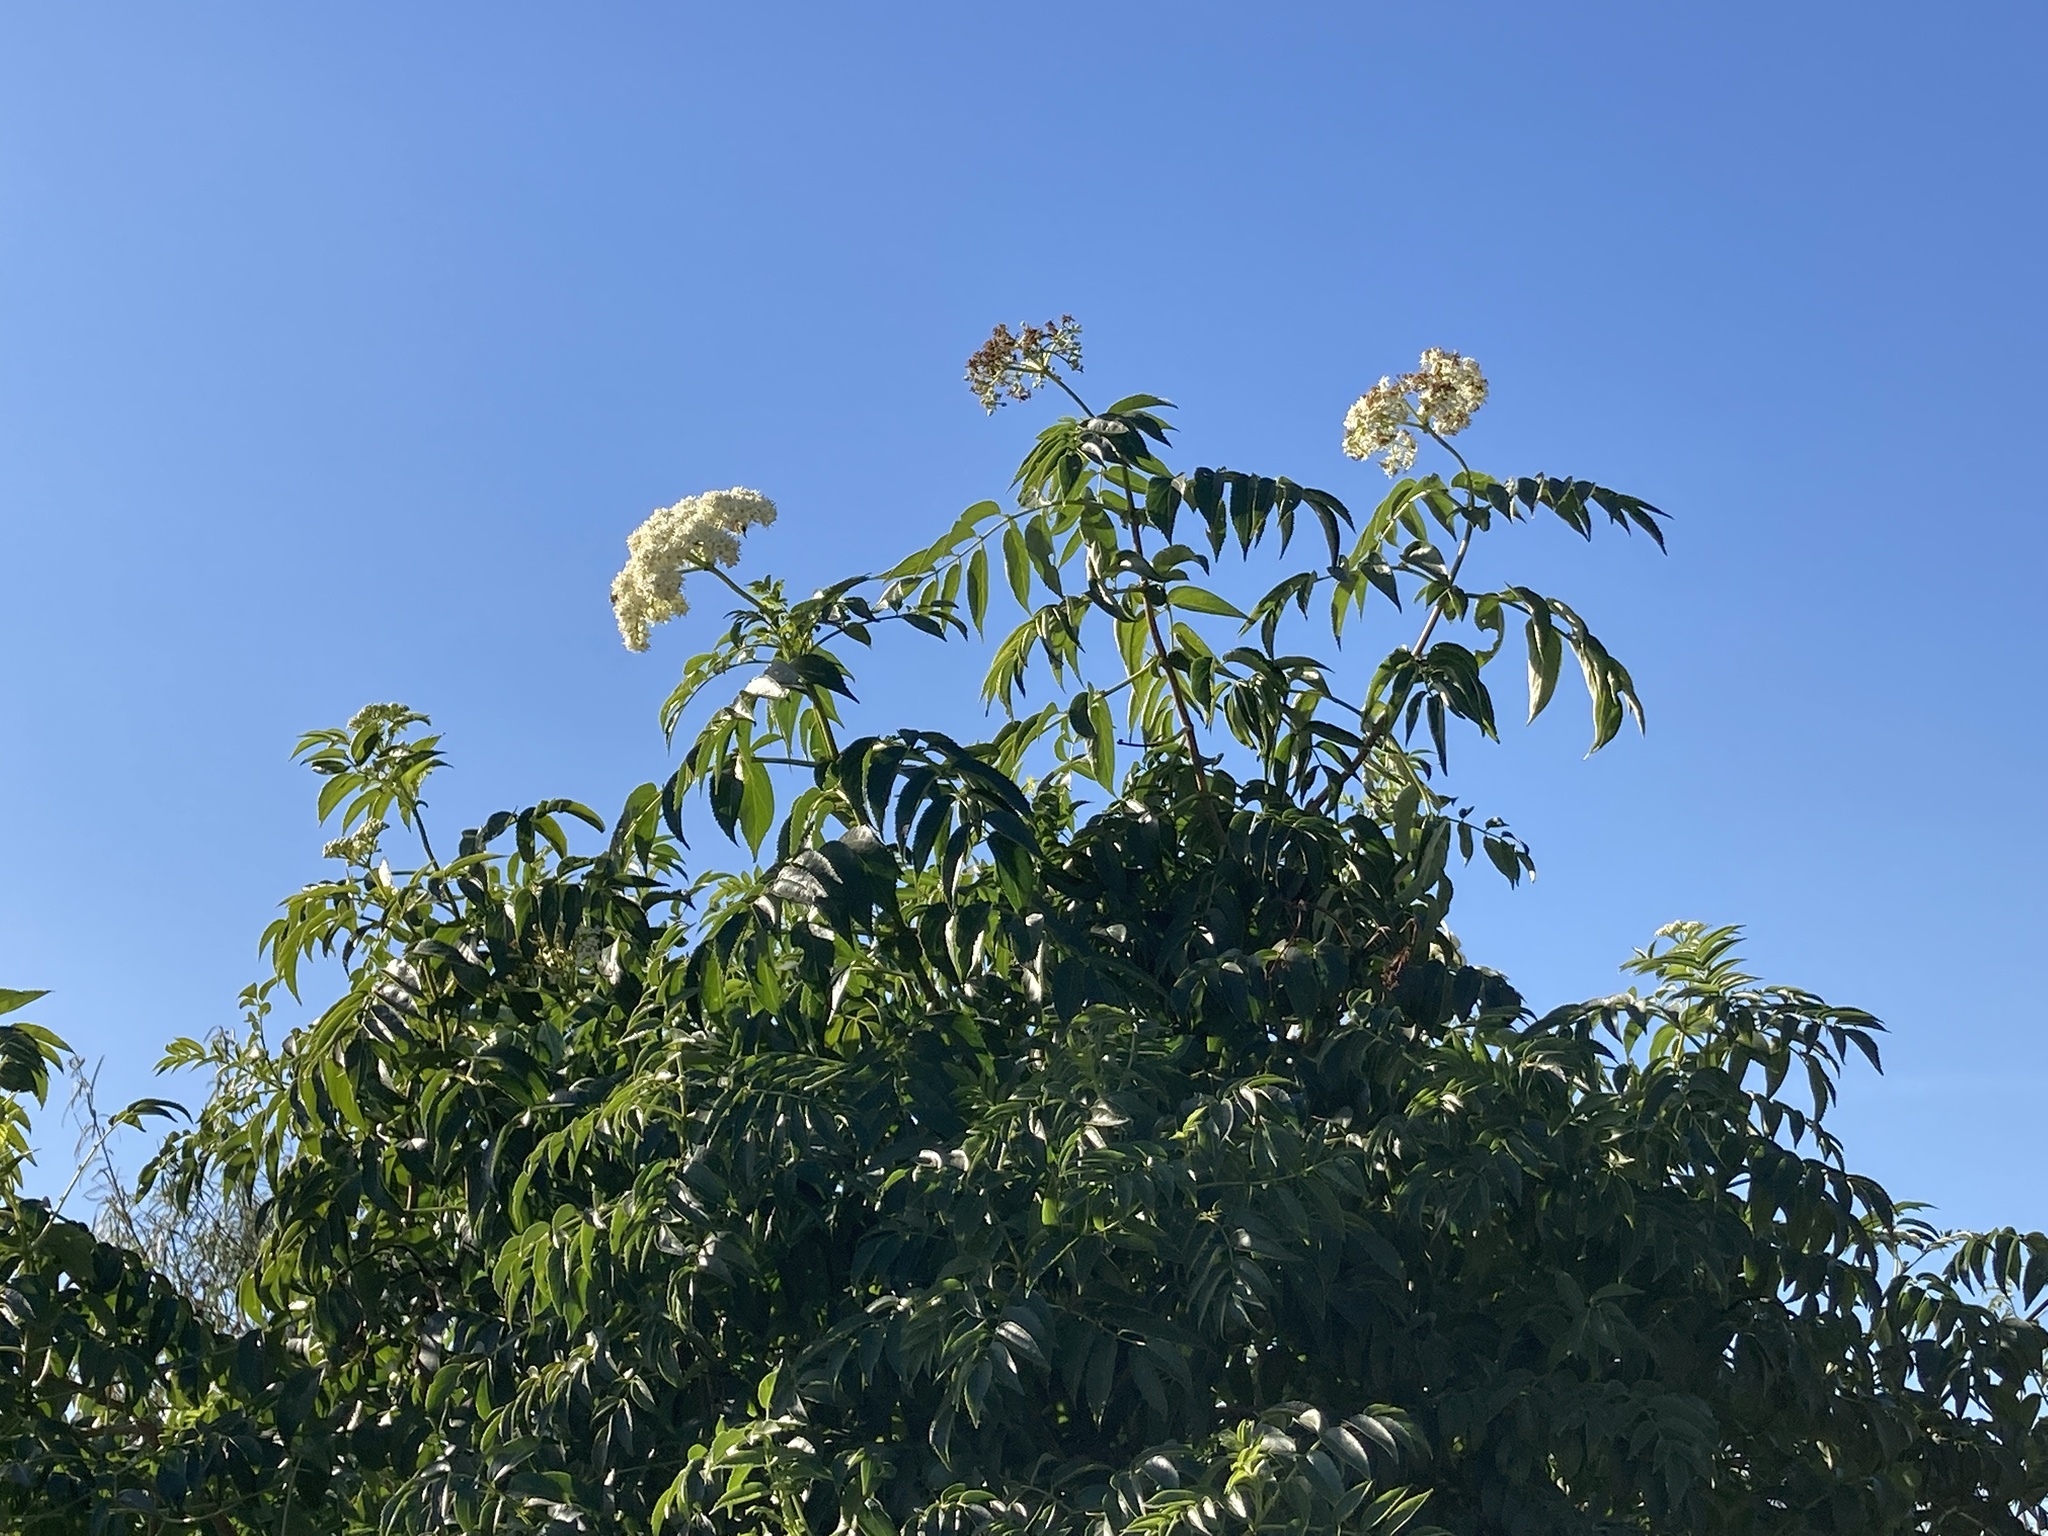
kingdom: Plantae
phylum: Tracheophyta
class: Magnoliopsida
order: Dipsacales
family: Viburnaceae
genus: Sambucus
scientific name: Sambucus australis
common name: Southern elder
